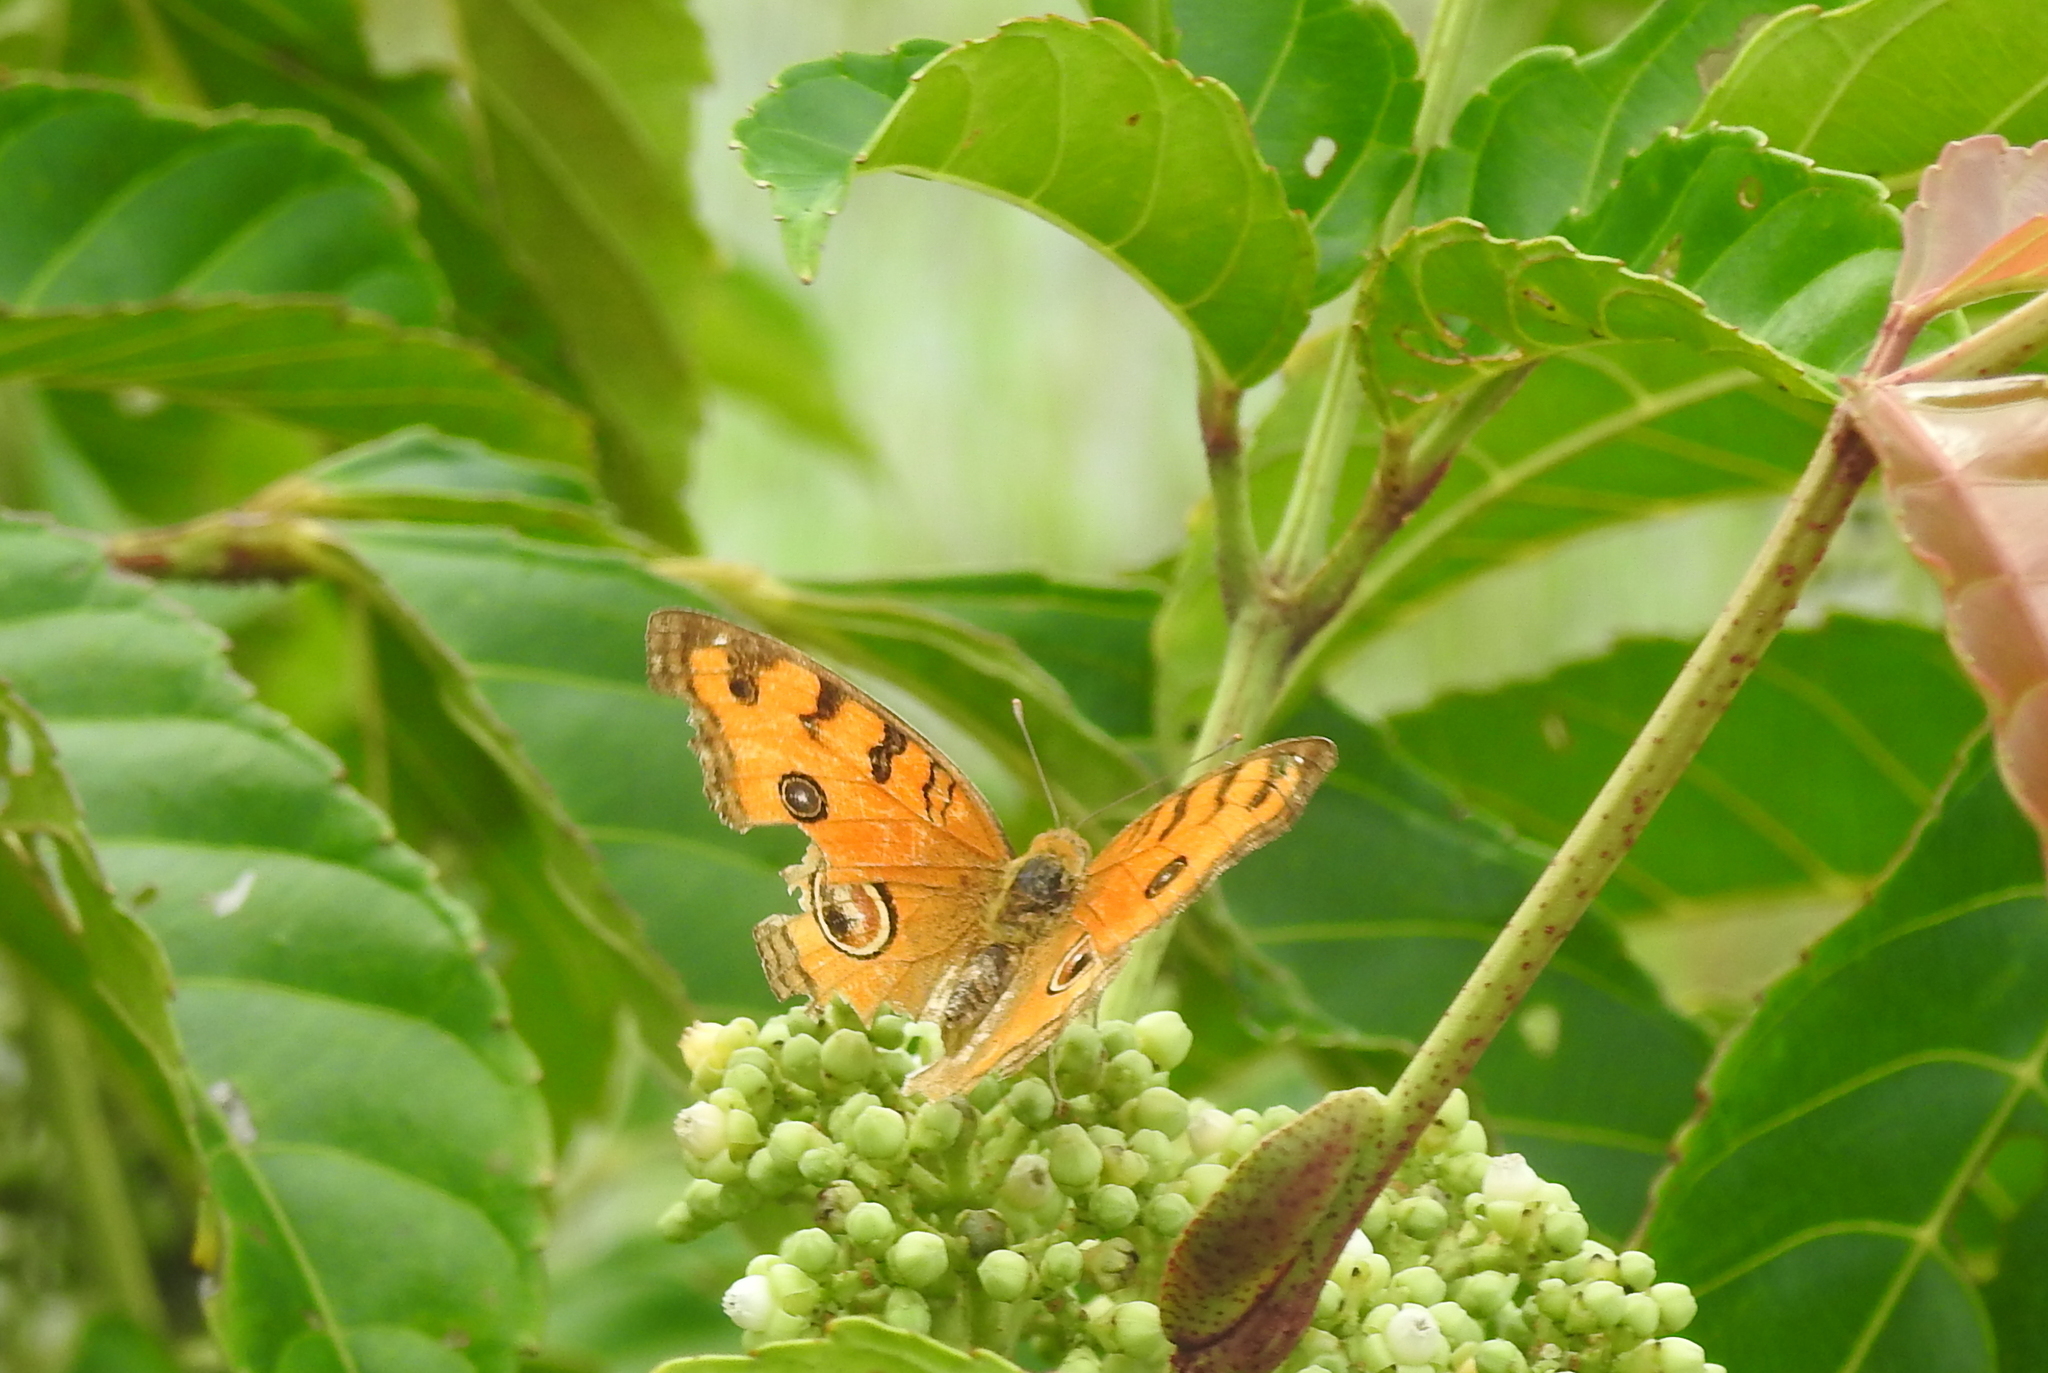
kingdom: Animalia
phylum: Arthropoda
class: Insecta
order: Lepidoptera
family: Nymphalidae
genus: Junonia
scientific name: Junonia almana
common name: Peacock pansy
